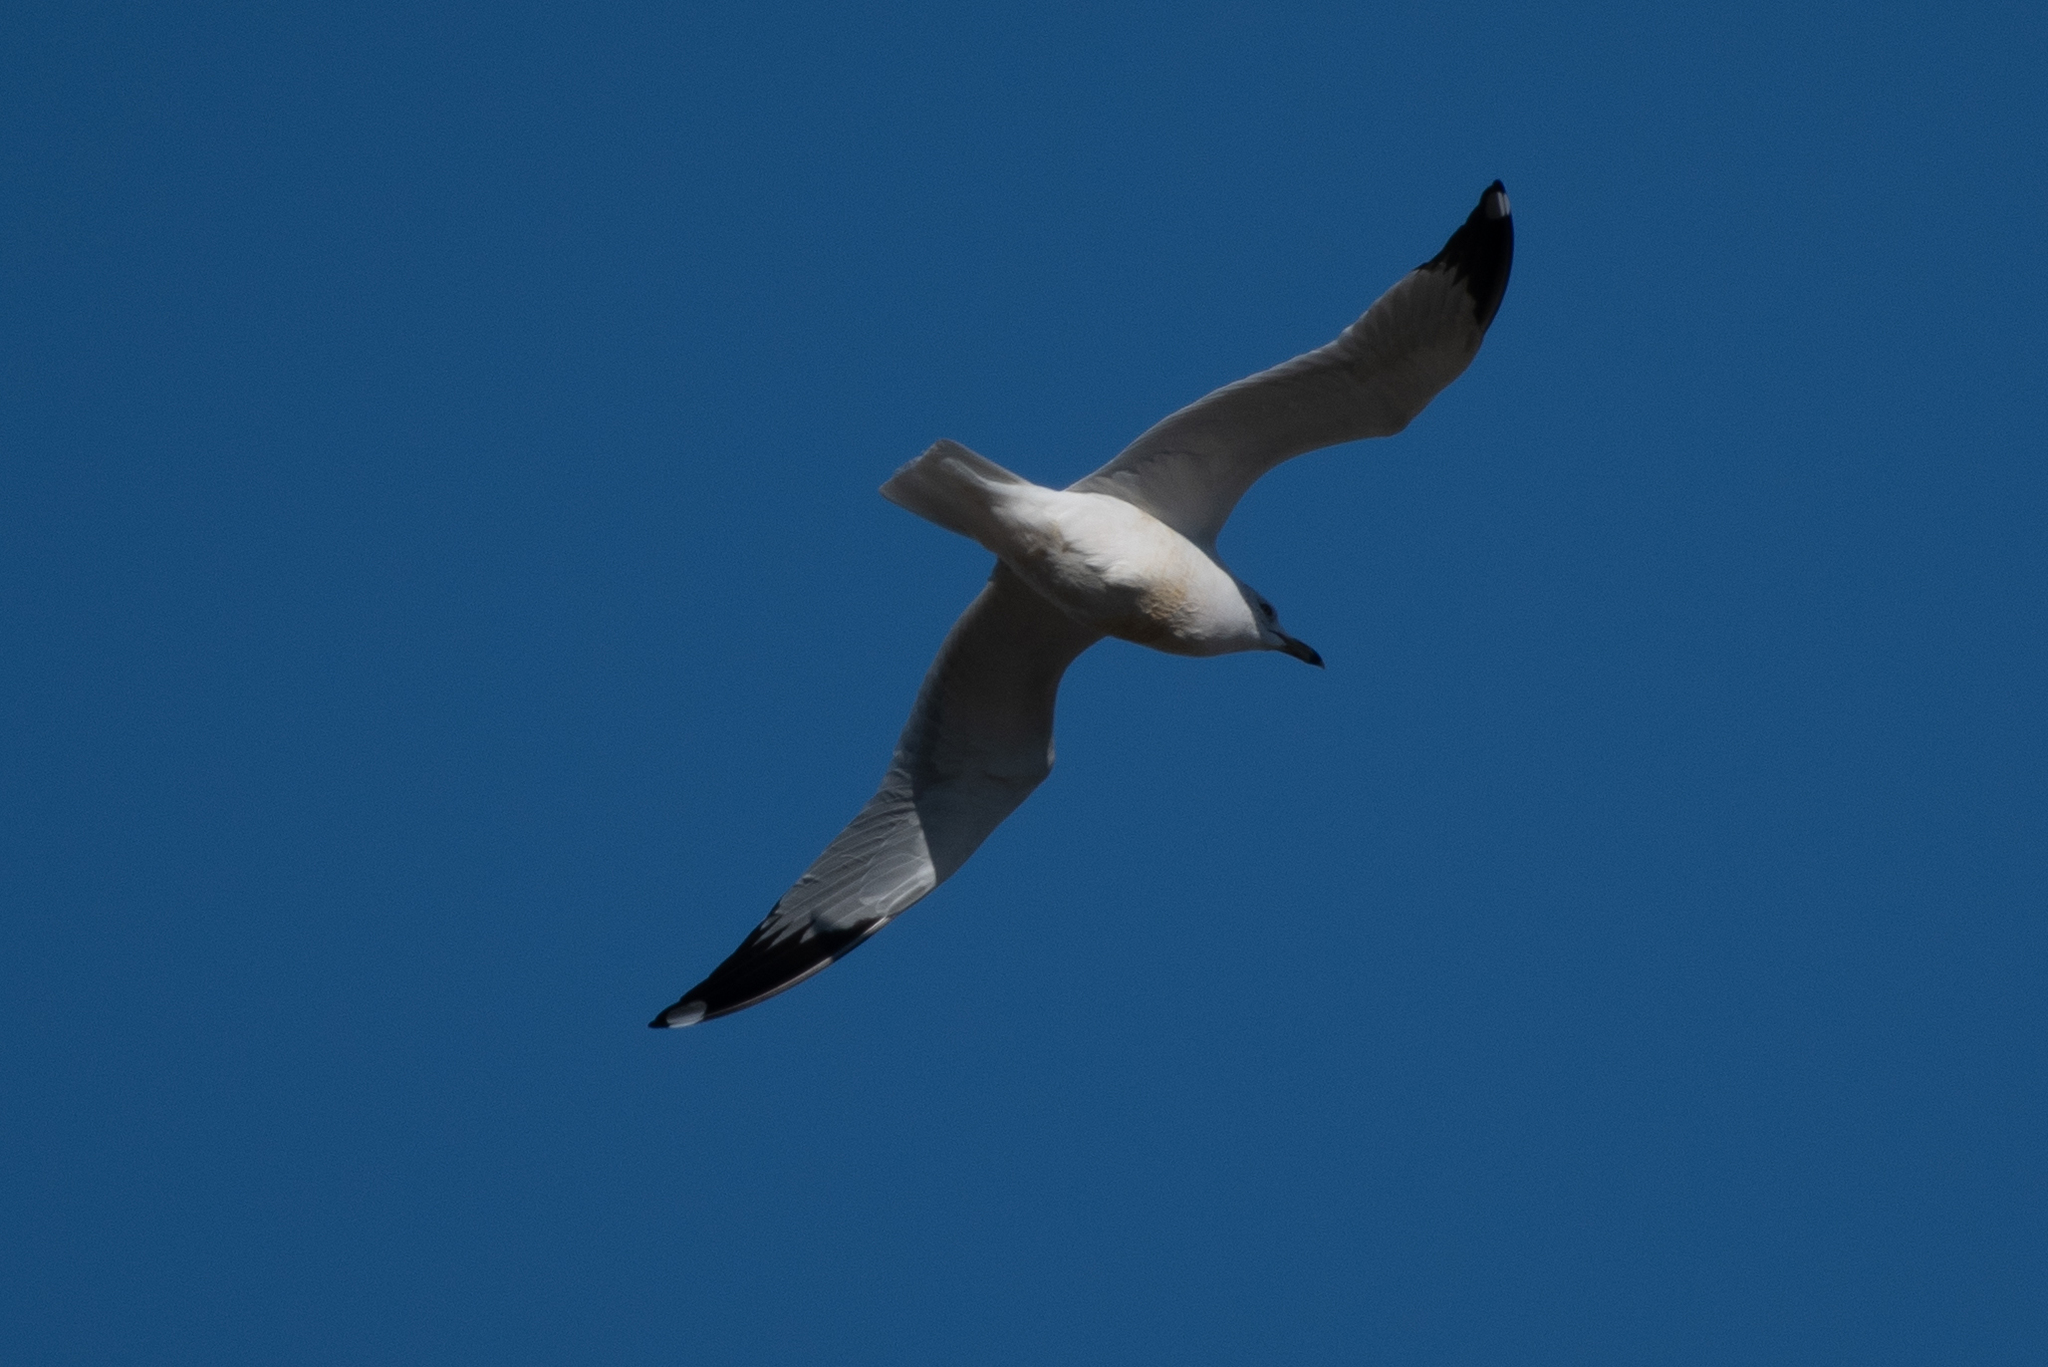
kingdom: Animalia
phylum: Chordata
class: Aves
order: Charadriiformes
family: Laridae
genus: Larus
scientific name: Larus delawarensis
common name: Ring-billed gull
